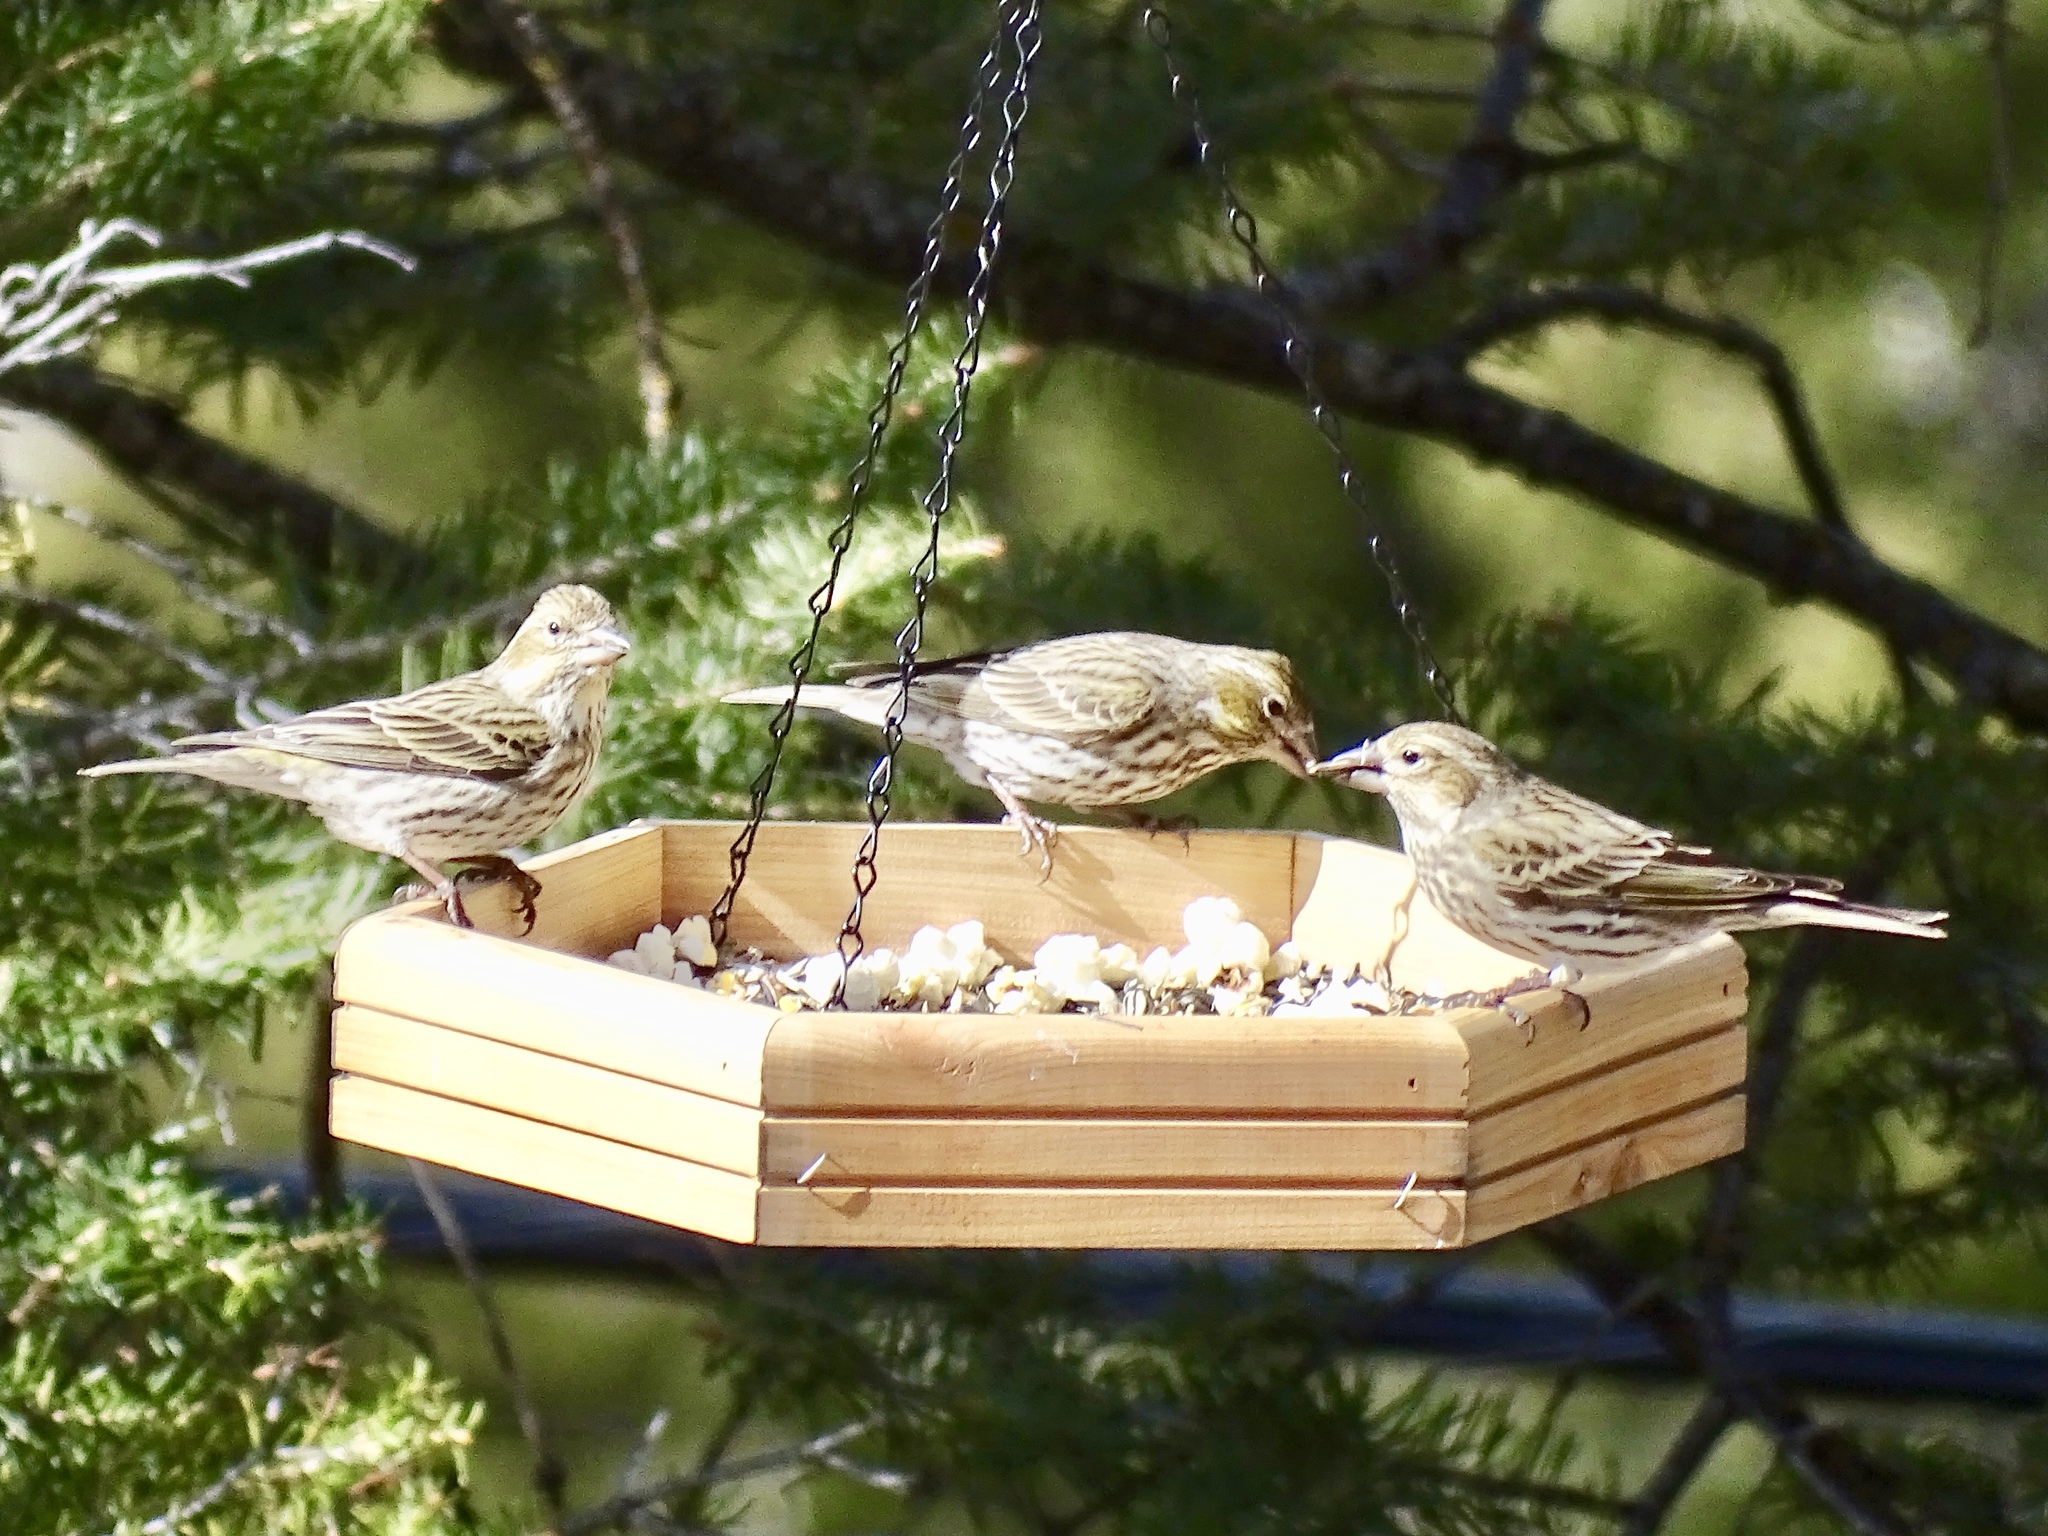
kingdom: Animalia
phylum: Chordata
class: Aves
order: Passeriformes
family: Fringillidae
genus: Haemorhous
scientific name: Haemorhous cassinii
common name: Cassin's finch
